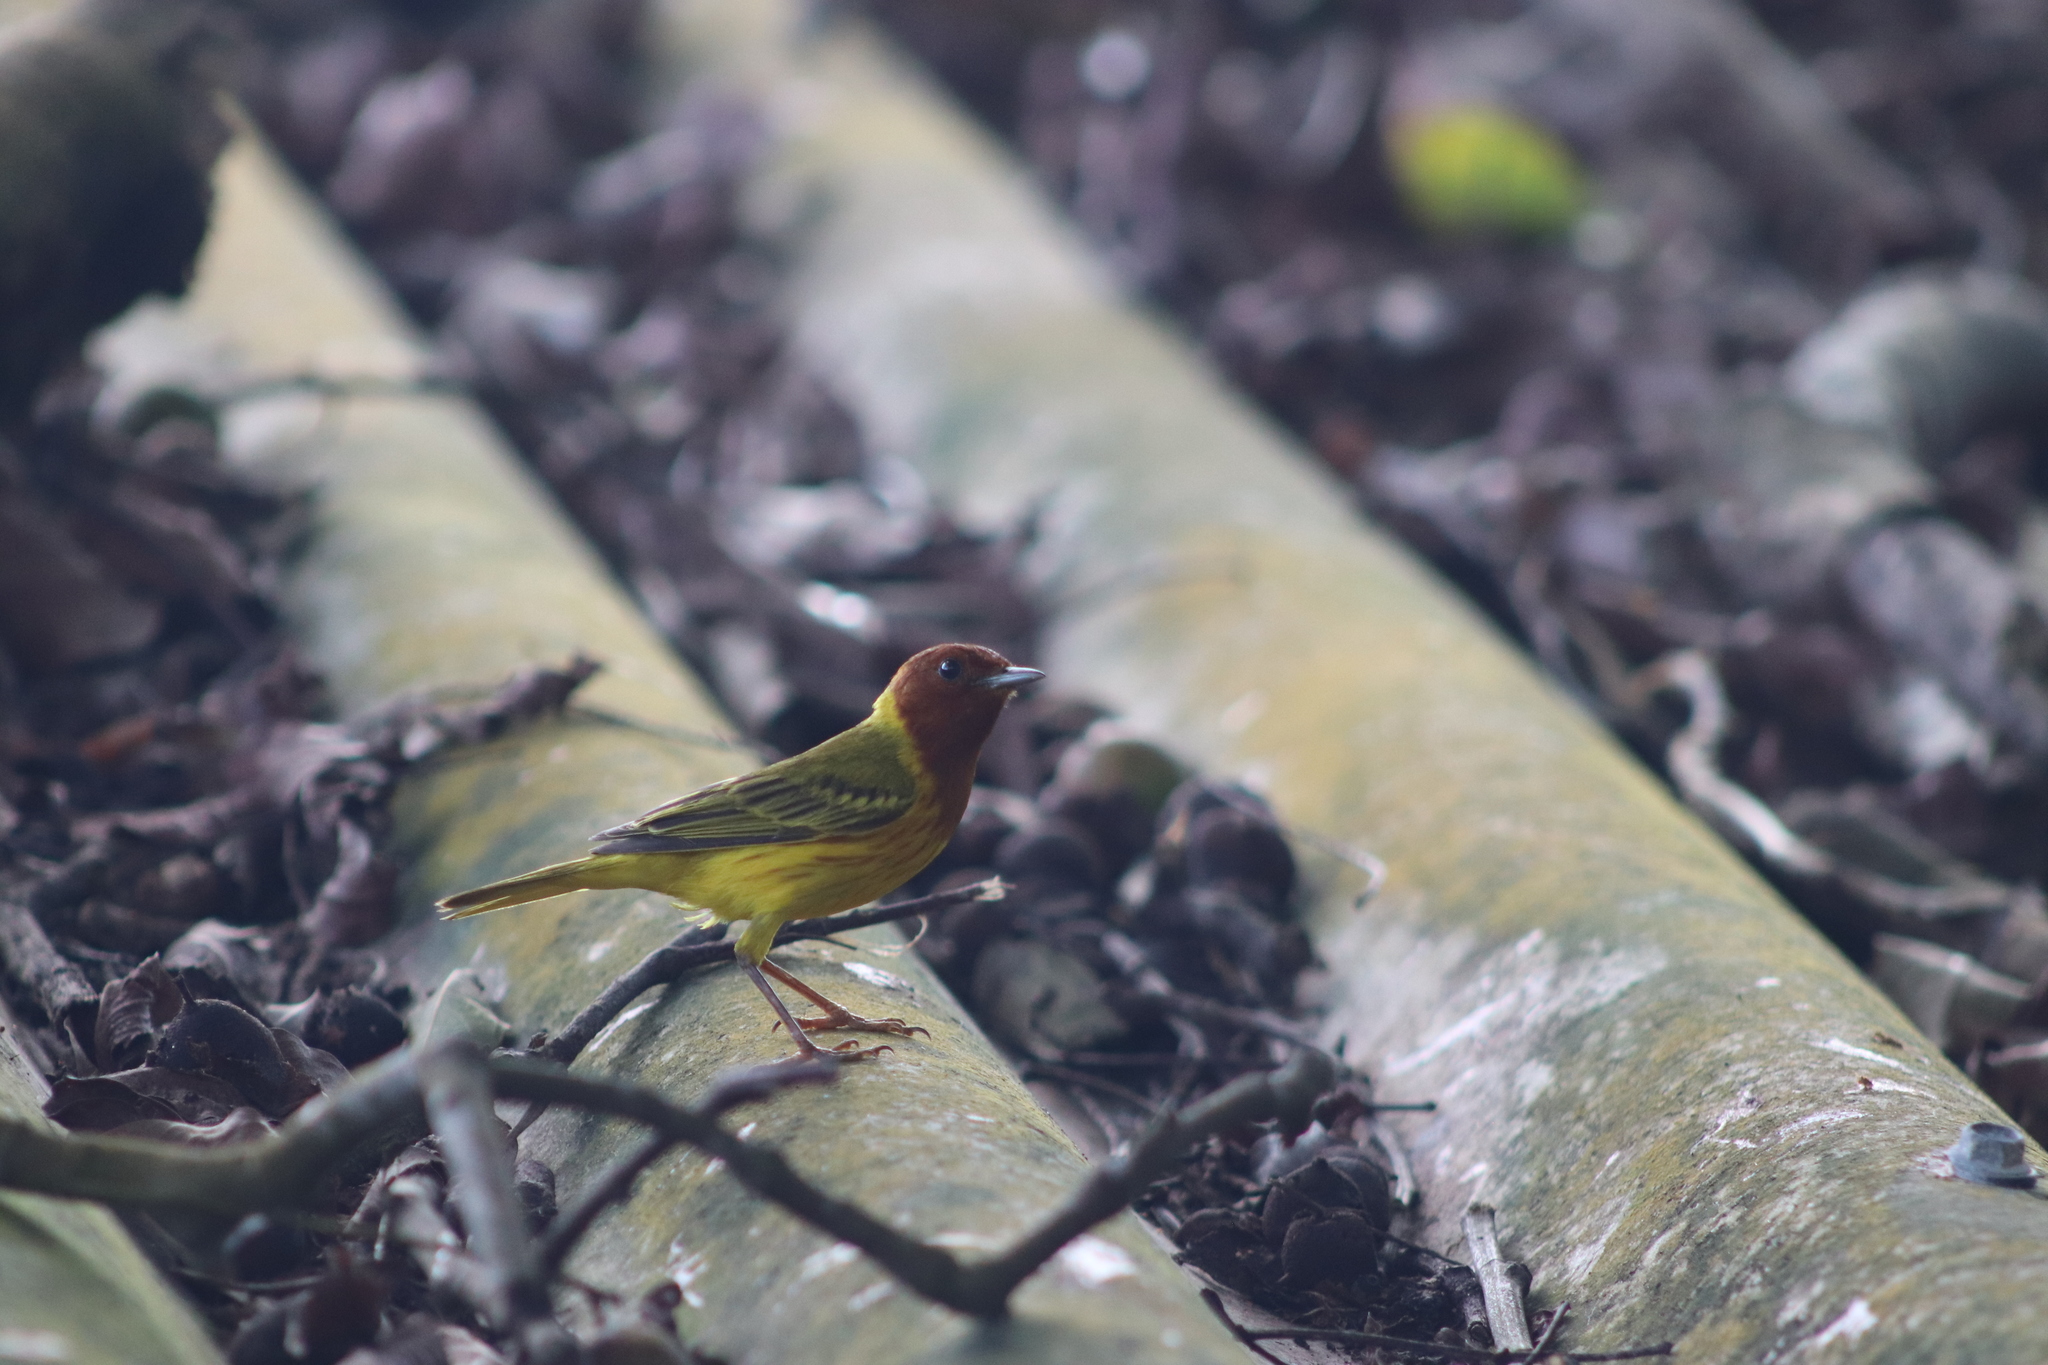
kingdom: Animalia
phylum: Chordata
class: Aves
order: Passeriformes
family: Parulidae
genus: Setophaga
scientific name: Setophaga petechia
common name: Yellow warbler
